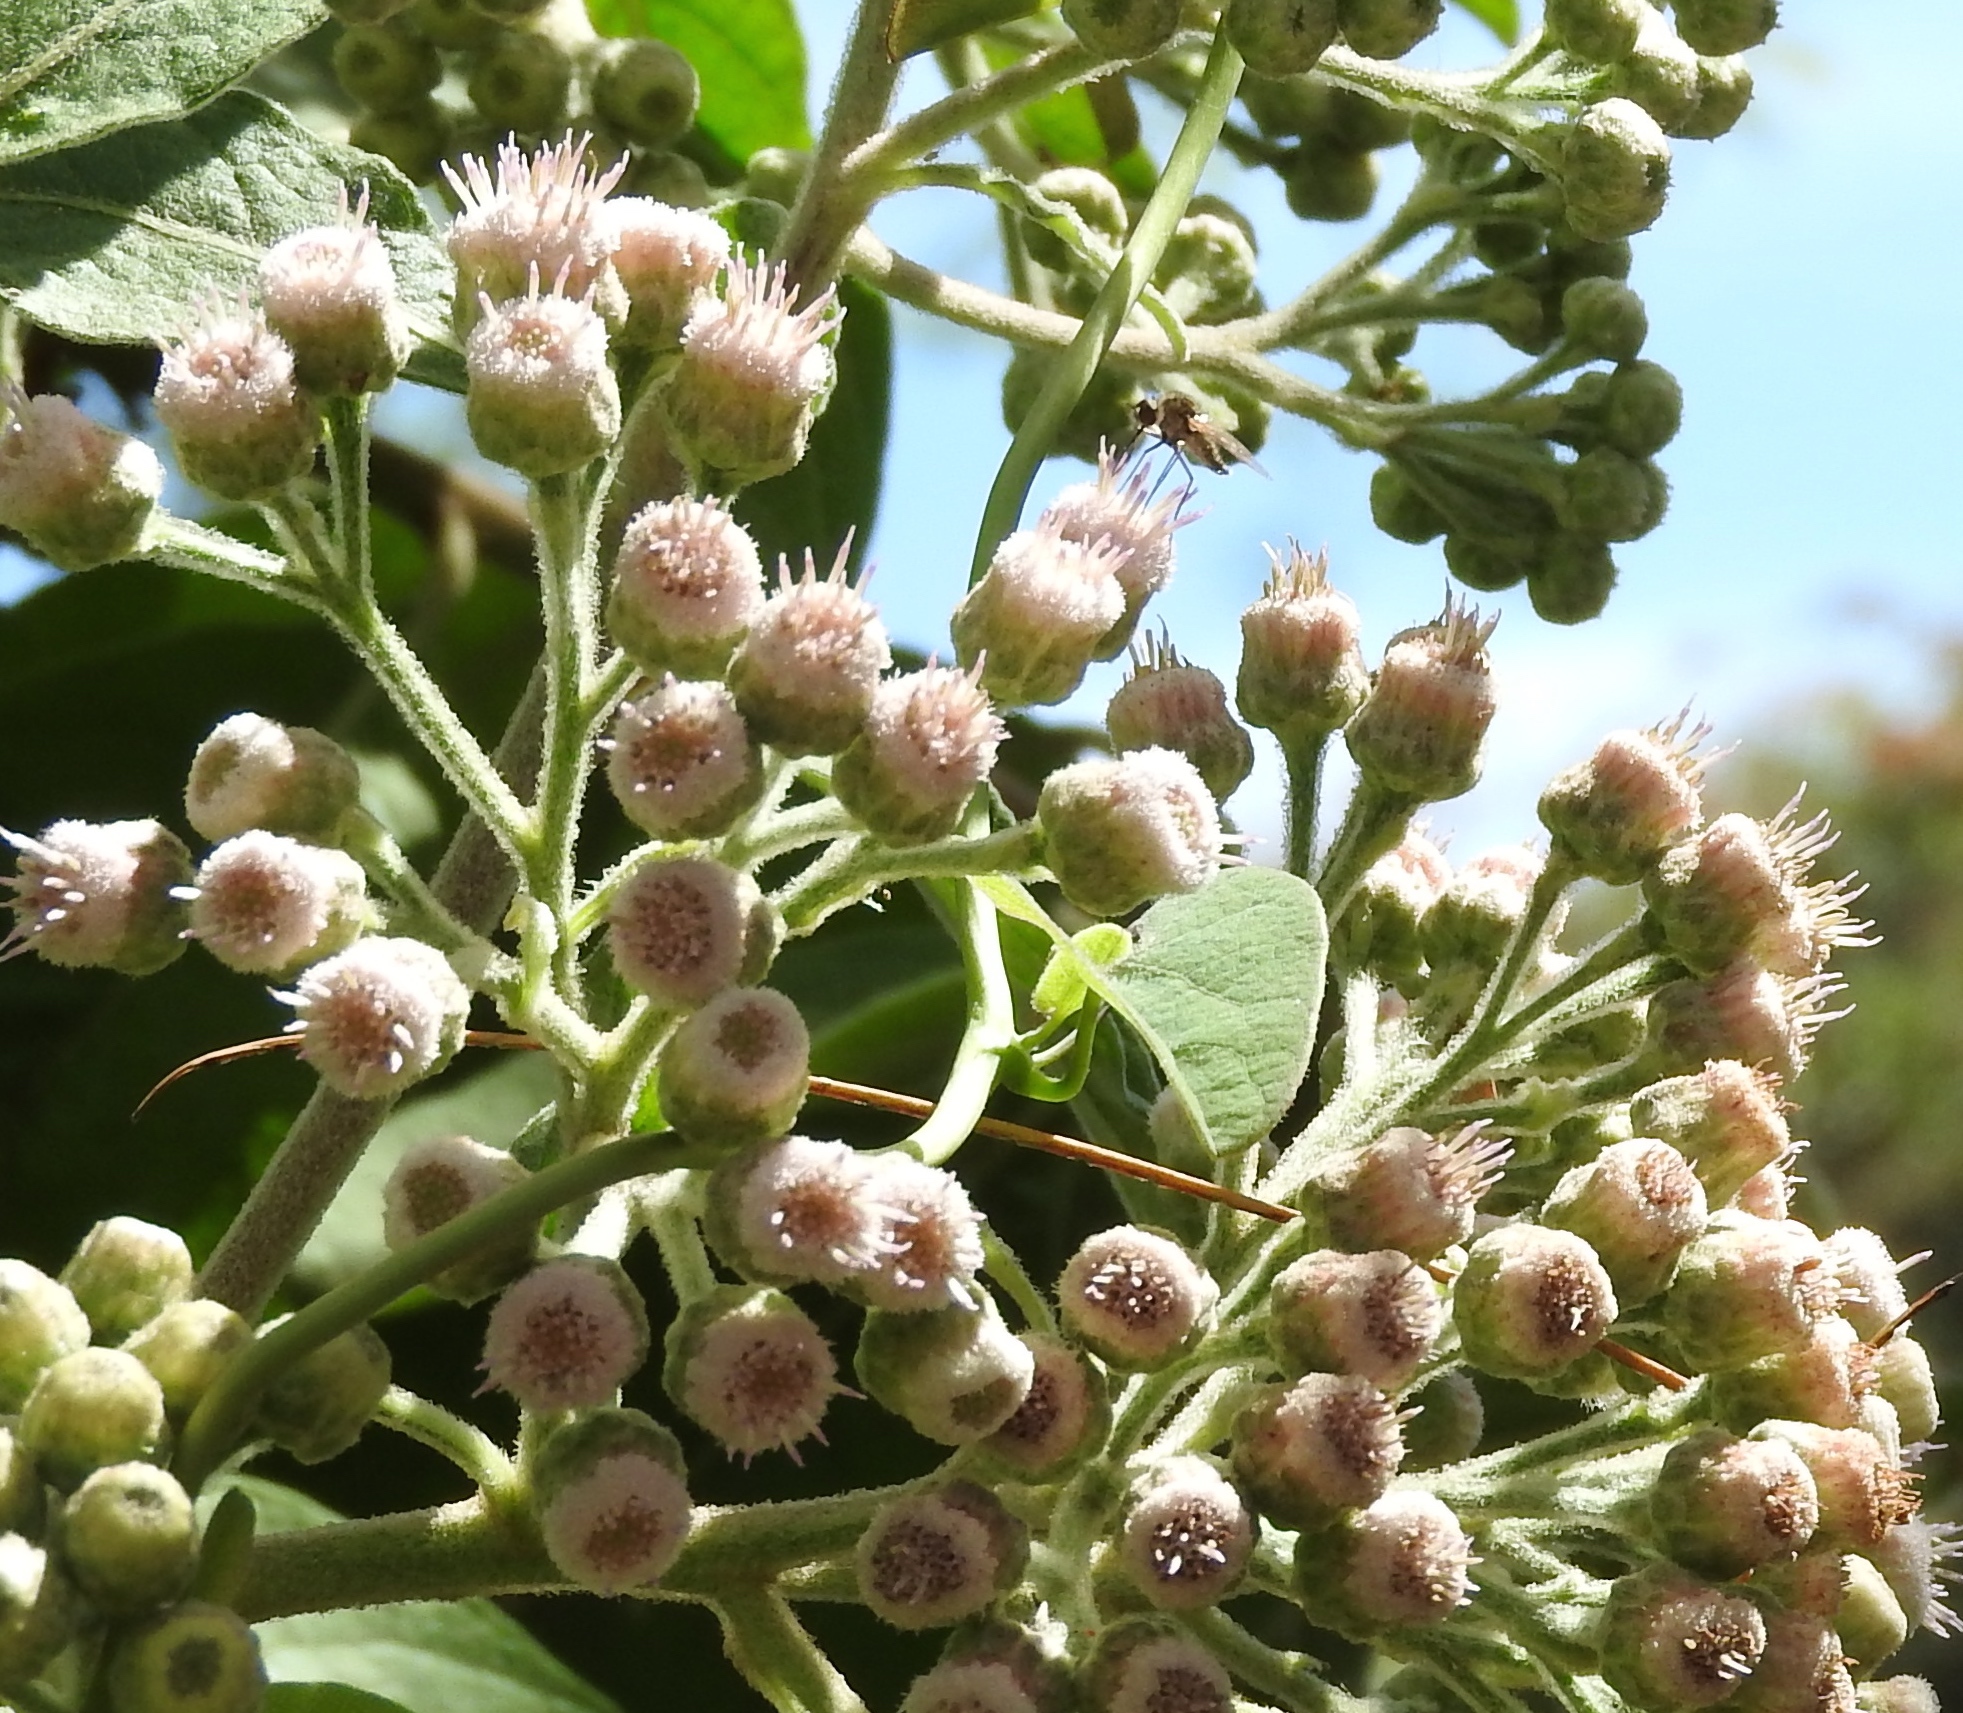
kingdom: Plantae
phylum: Tracheophyta
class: Magnoliopsida
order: Asterales
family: Asteraceae
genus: Pluchea
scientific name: Pluchea carolinensis
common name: Marsh fleabane
